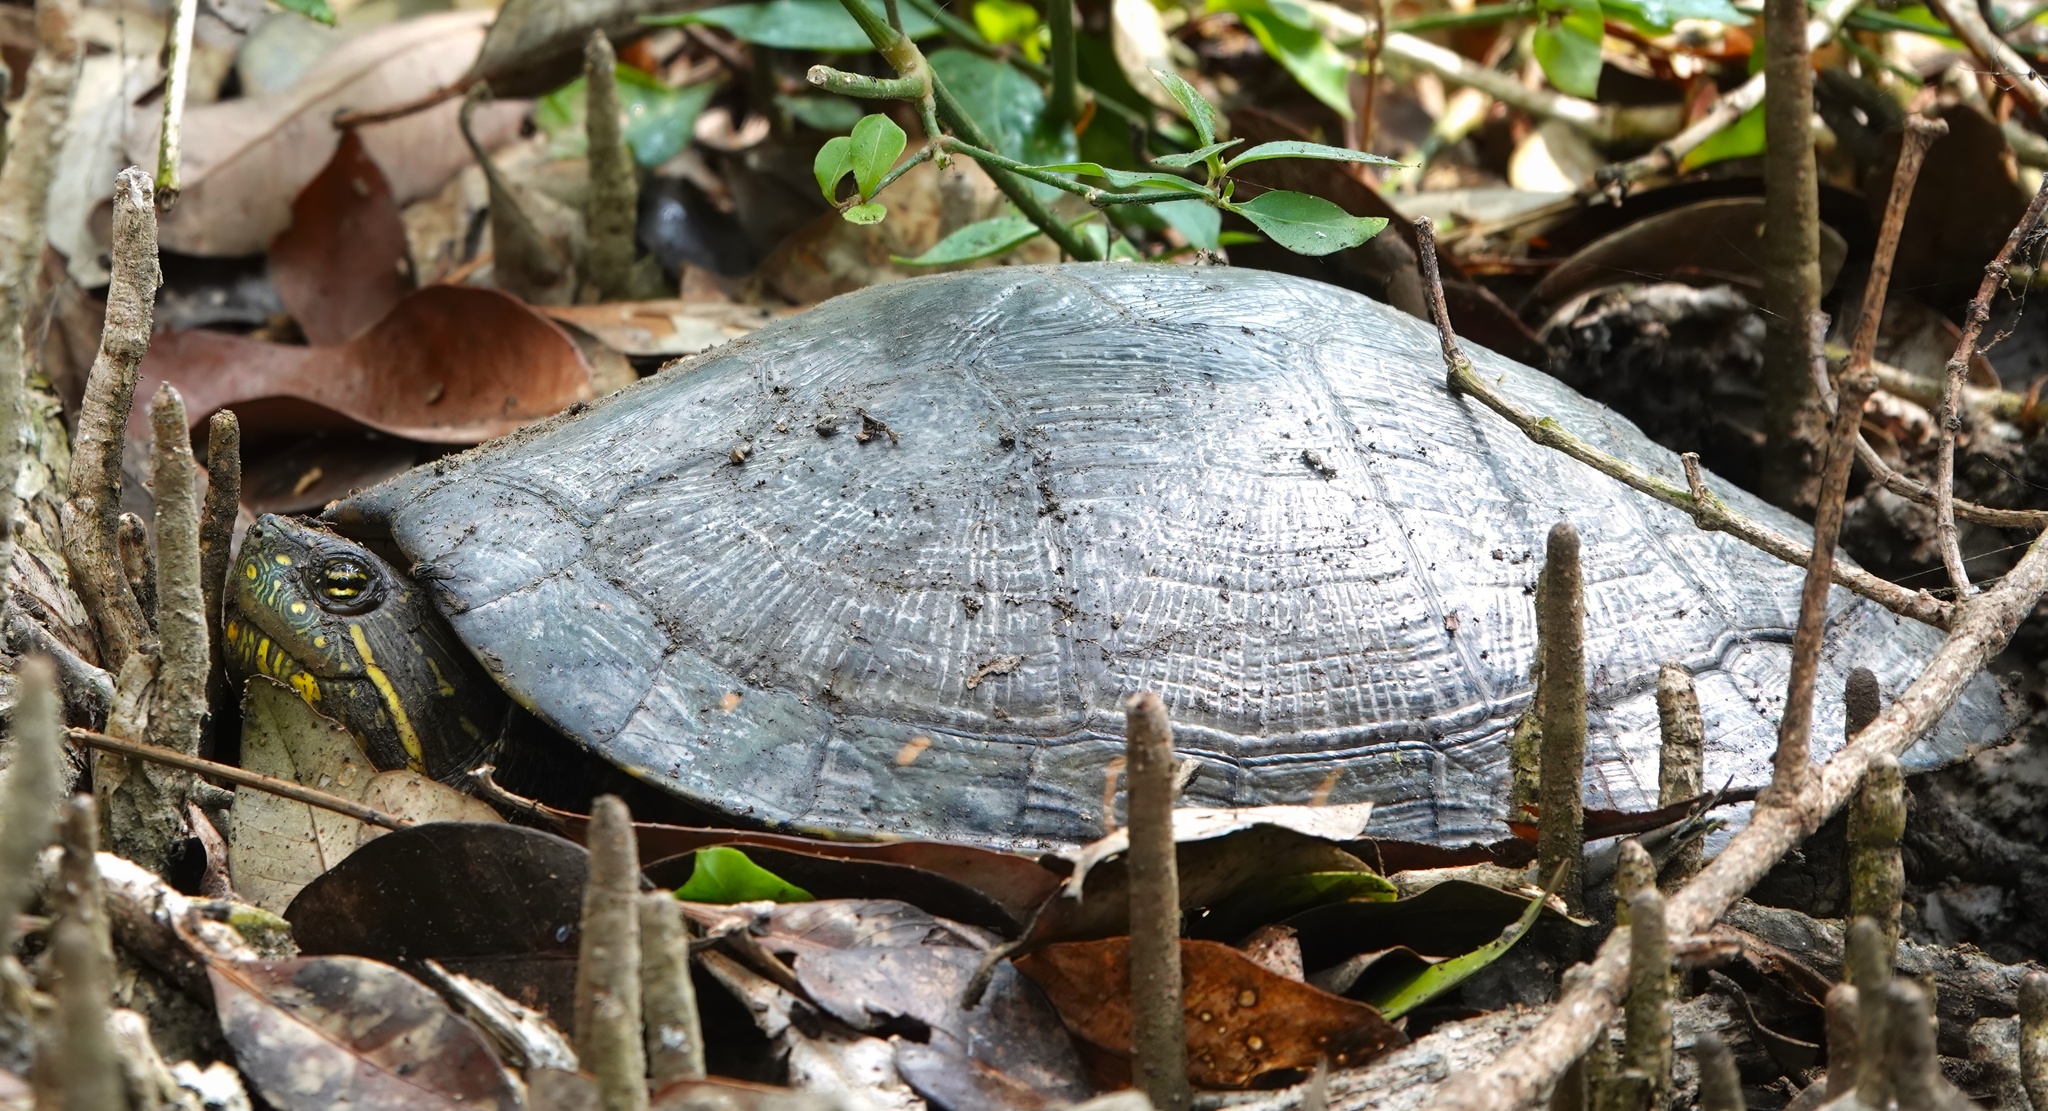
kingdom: Animalia
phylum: Chordata
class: Testudines
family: Emydidae
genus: Trachemys
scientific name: Trachemys callirostris
